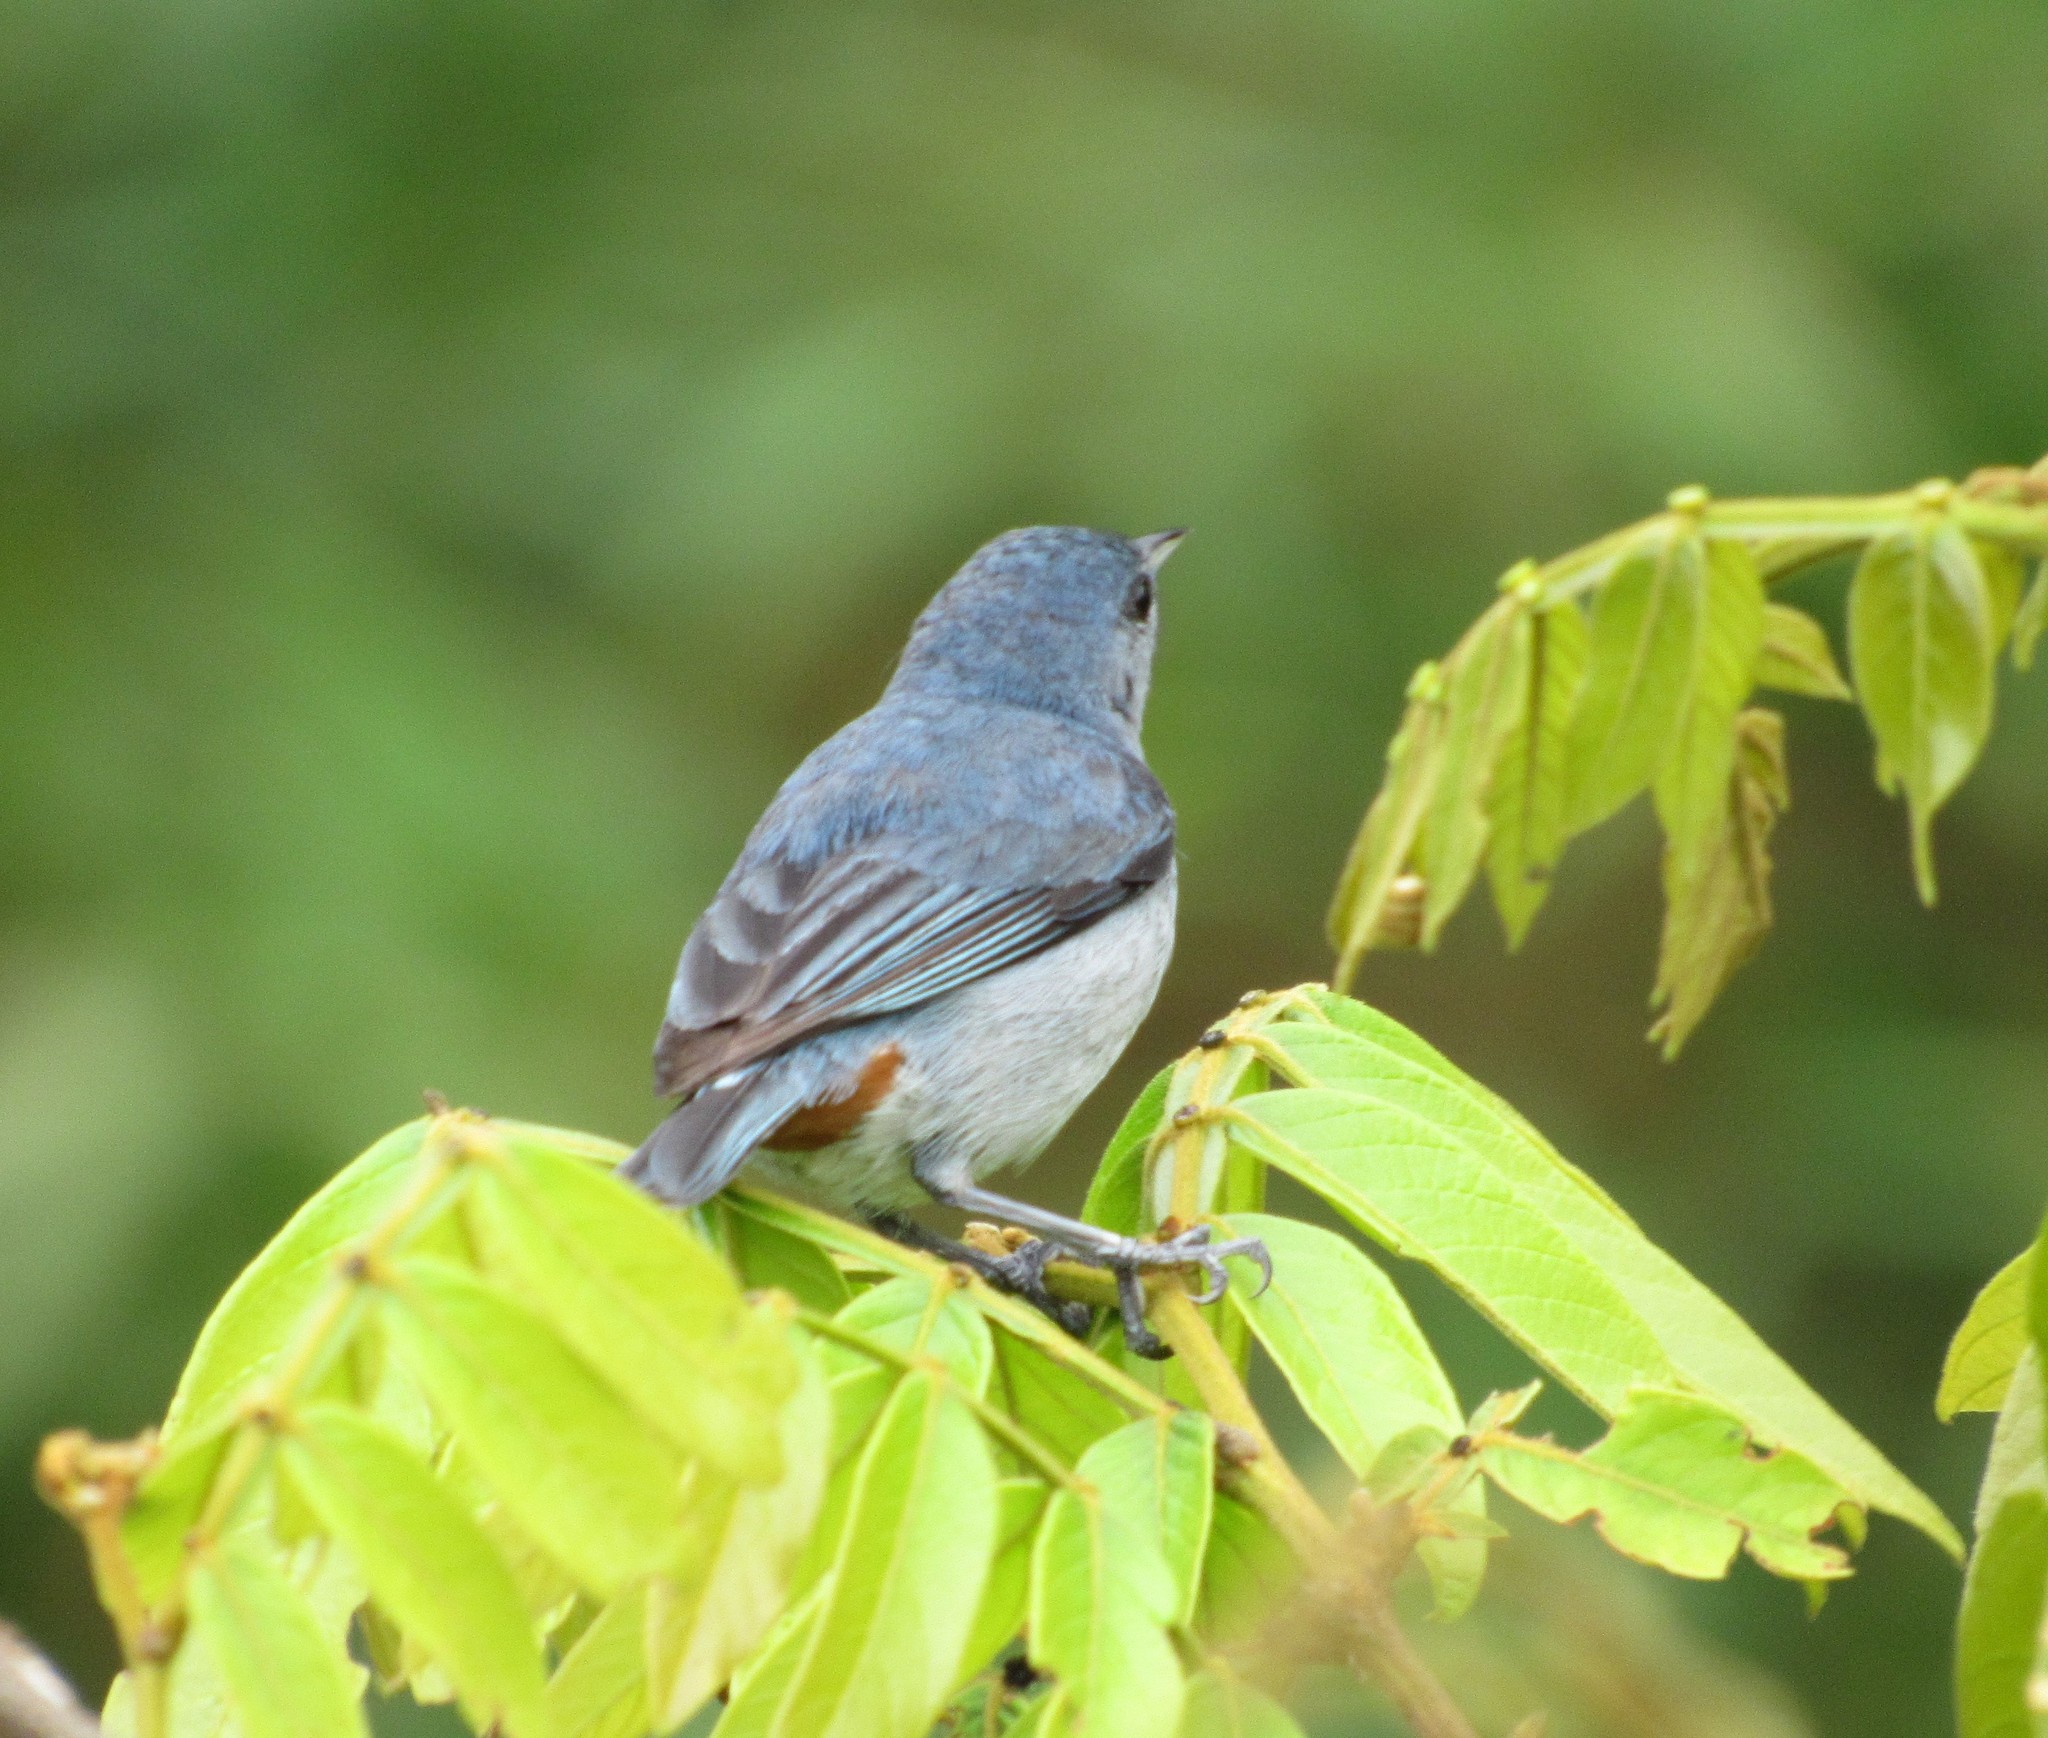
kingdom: Animalia
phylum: Chordata
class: Aves
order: Passeriformes
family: Thraupidae
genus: Conirostrum
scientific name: Conirostrum speciosum
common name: Chestnut-vented conebill
